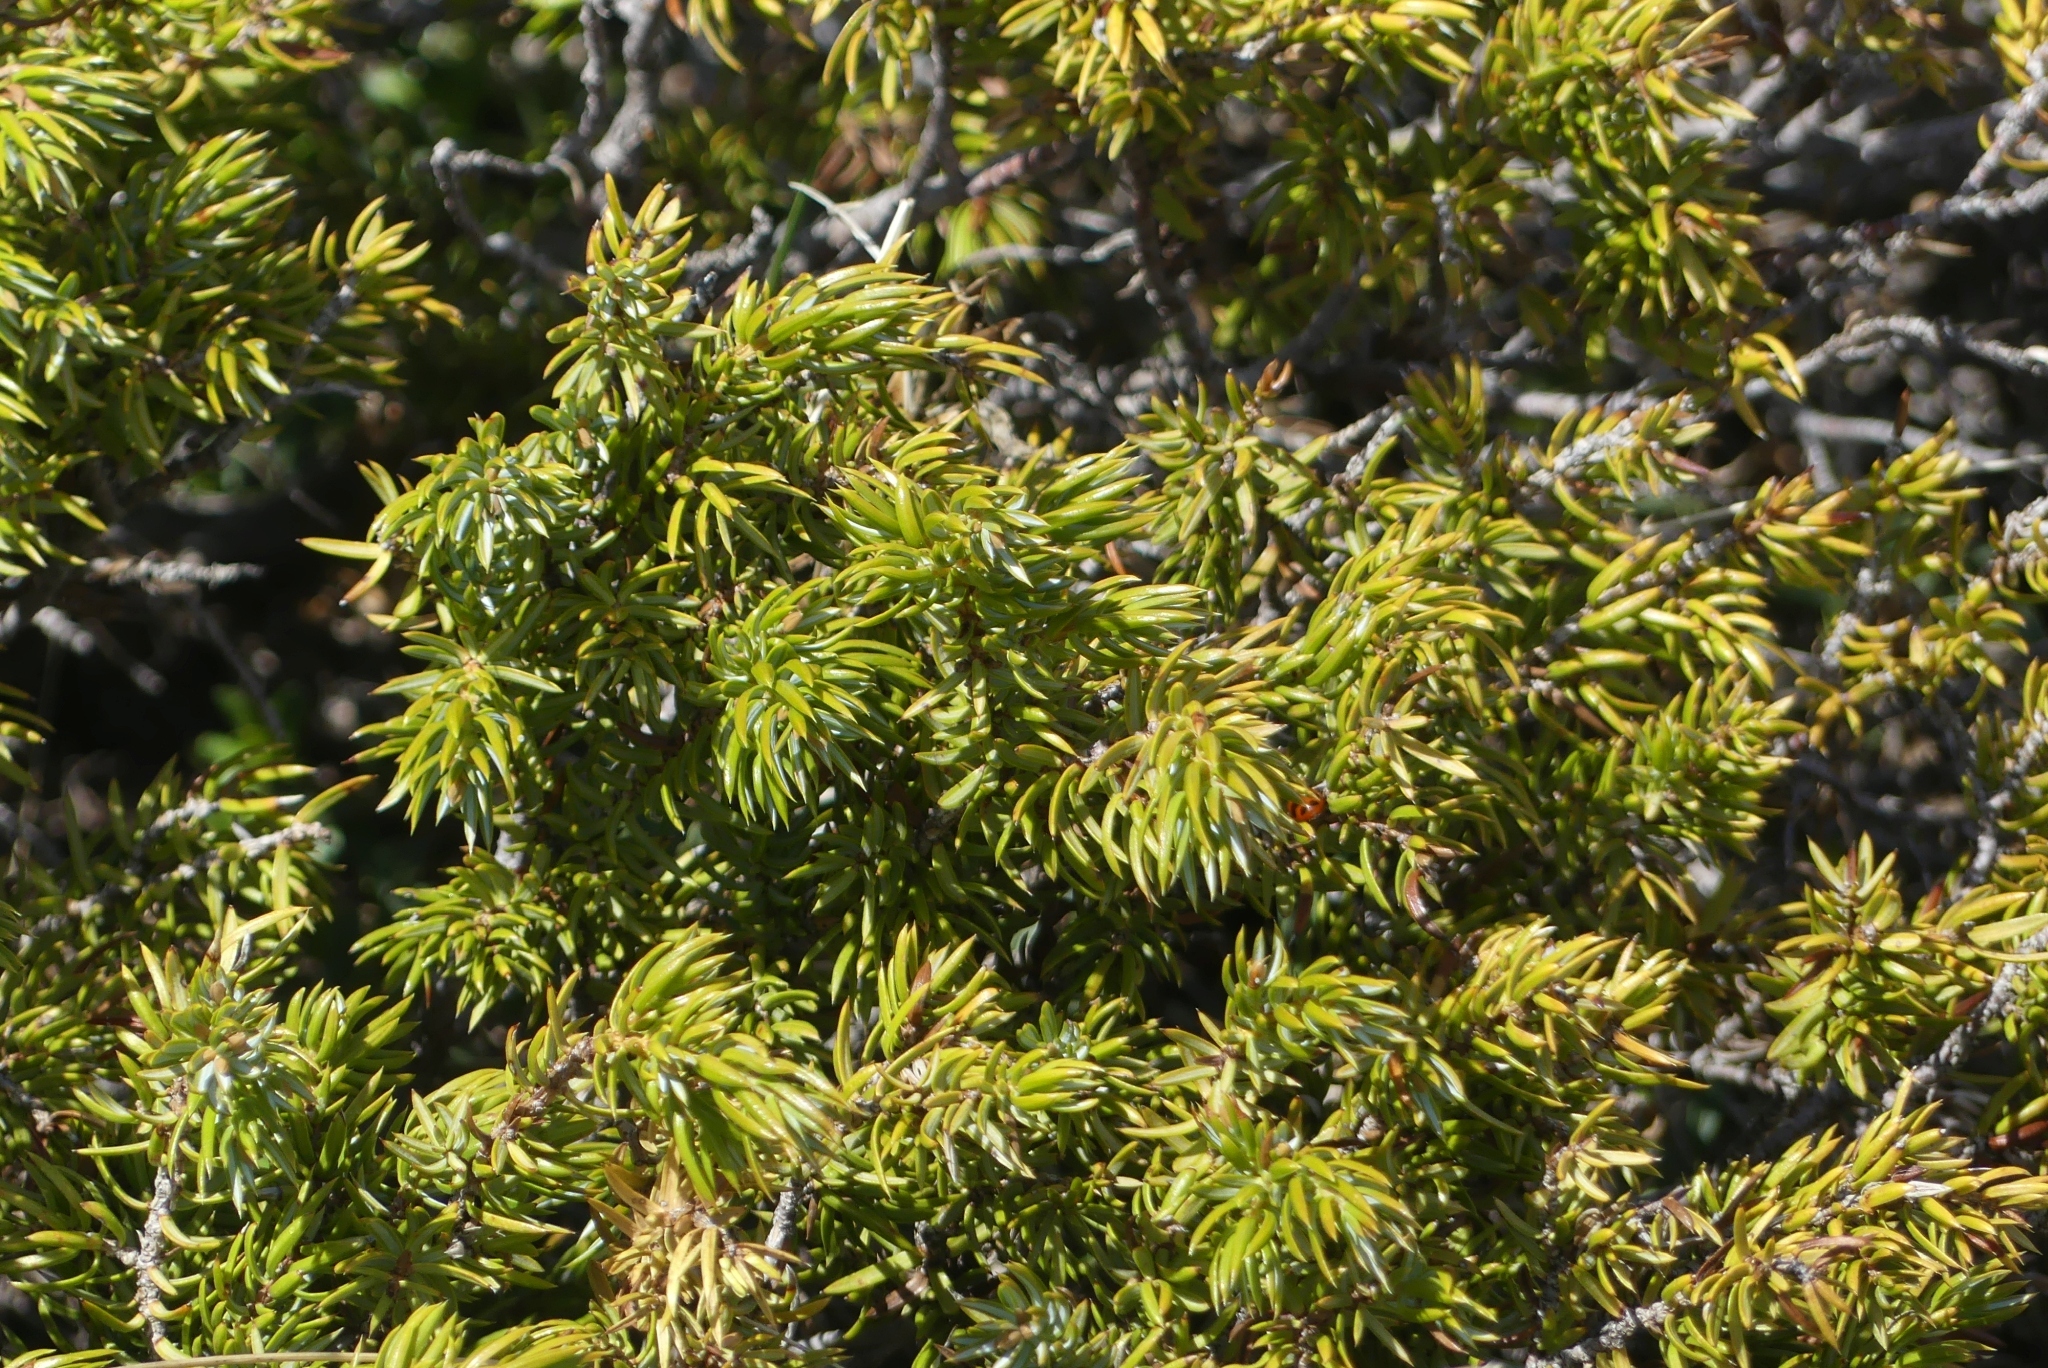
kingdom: Plantae
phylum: Tracheophyta
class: Pinopsida
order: Pinales
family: Cupressaceae
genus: Juniperus
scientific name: Juniperus communis
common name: Common juniper
